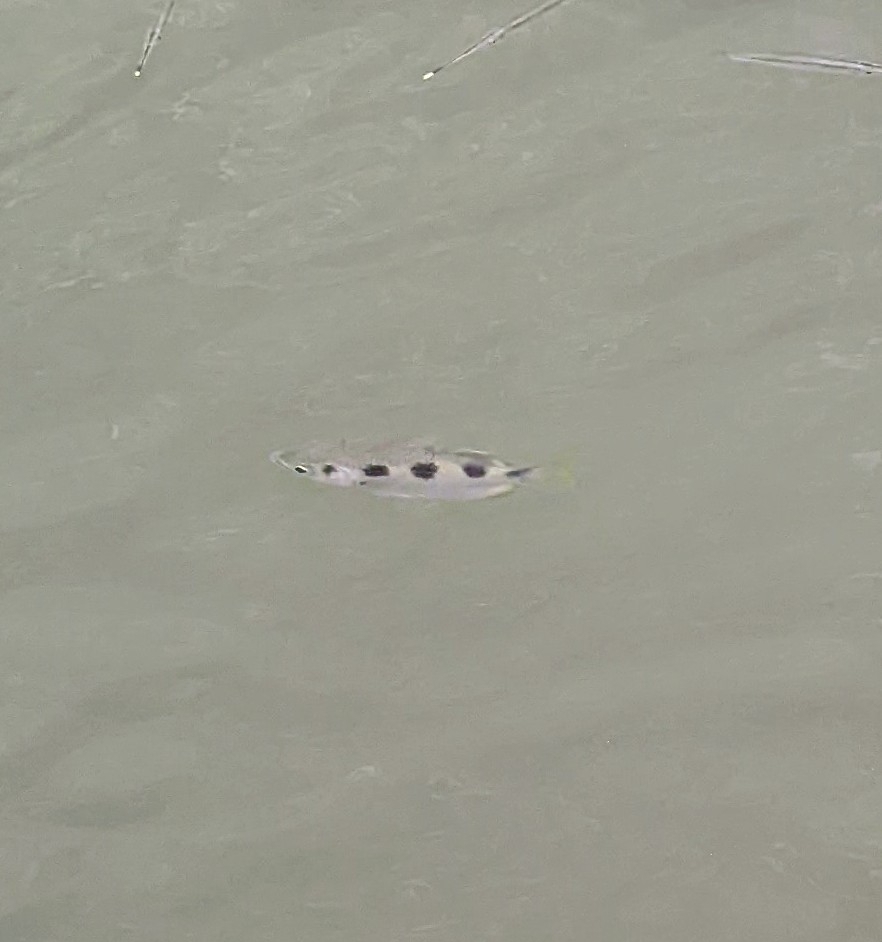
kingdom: Animalia
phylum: Chordata
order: Perciformes
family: Toxotidae
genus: Toxotes
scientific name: Toxotes jaculatrix
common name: Banded archerfish
